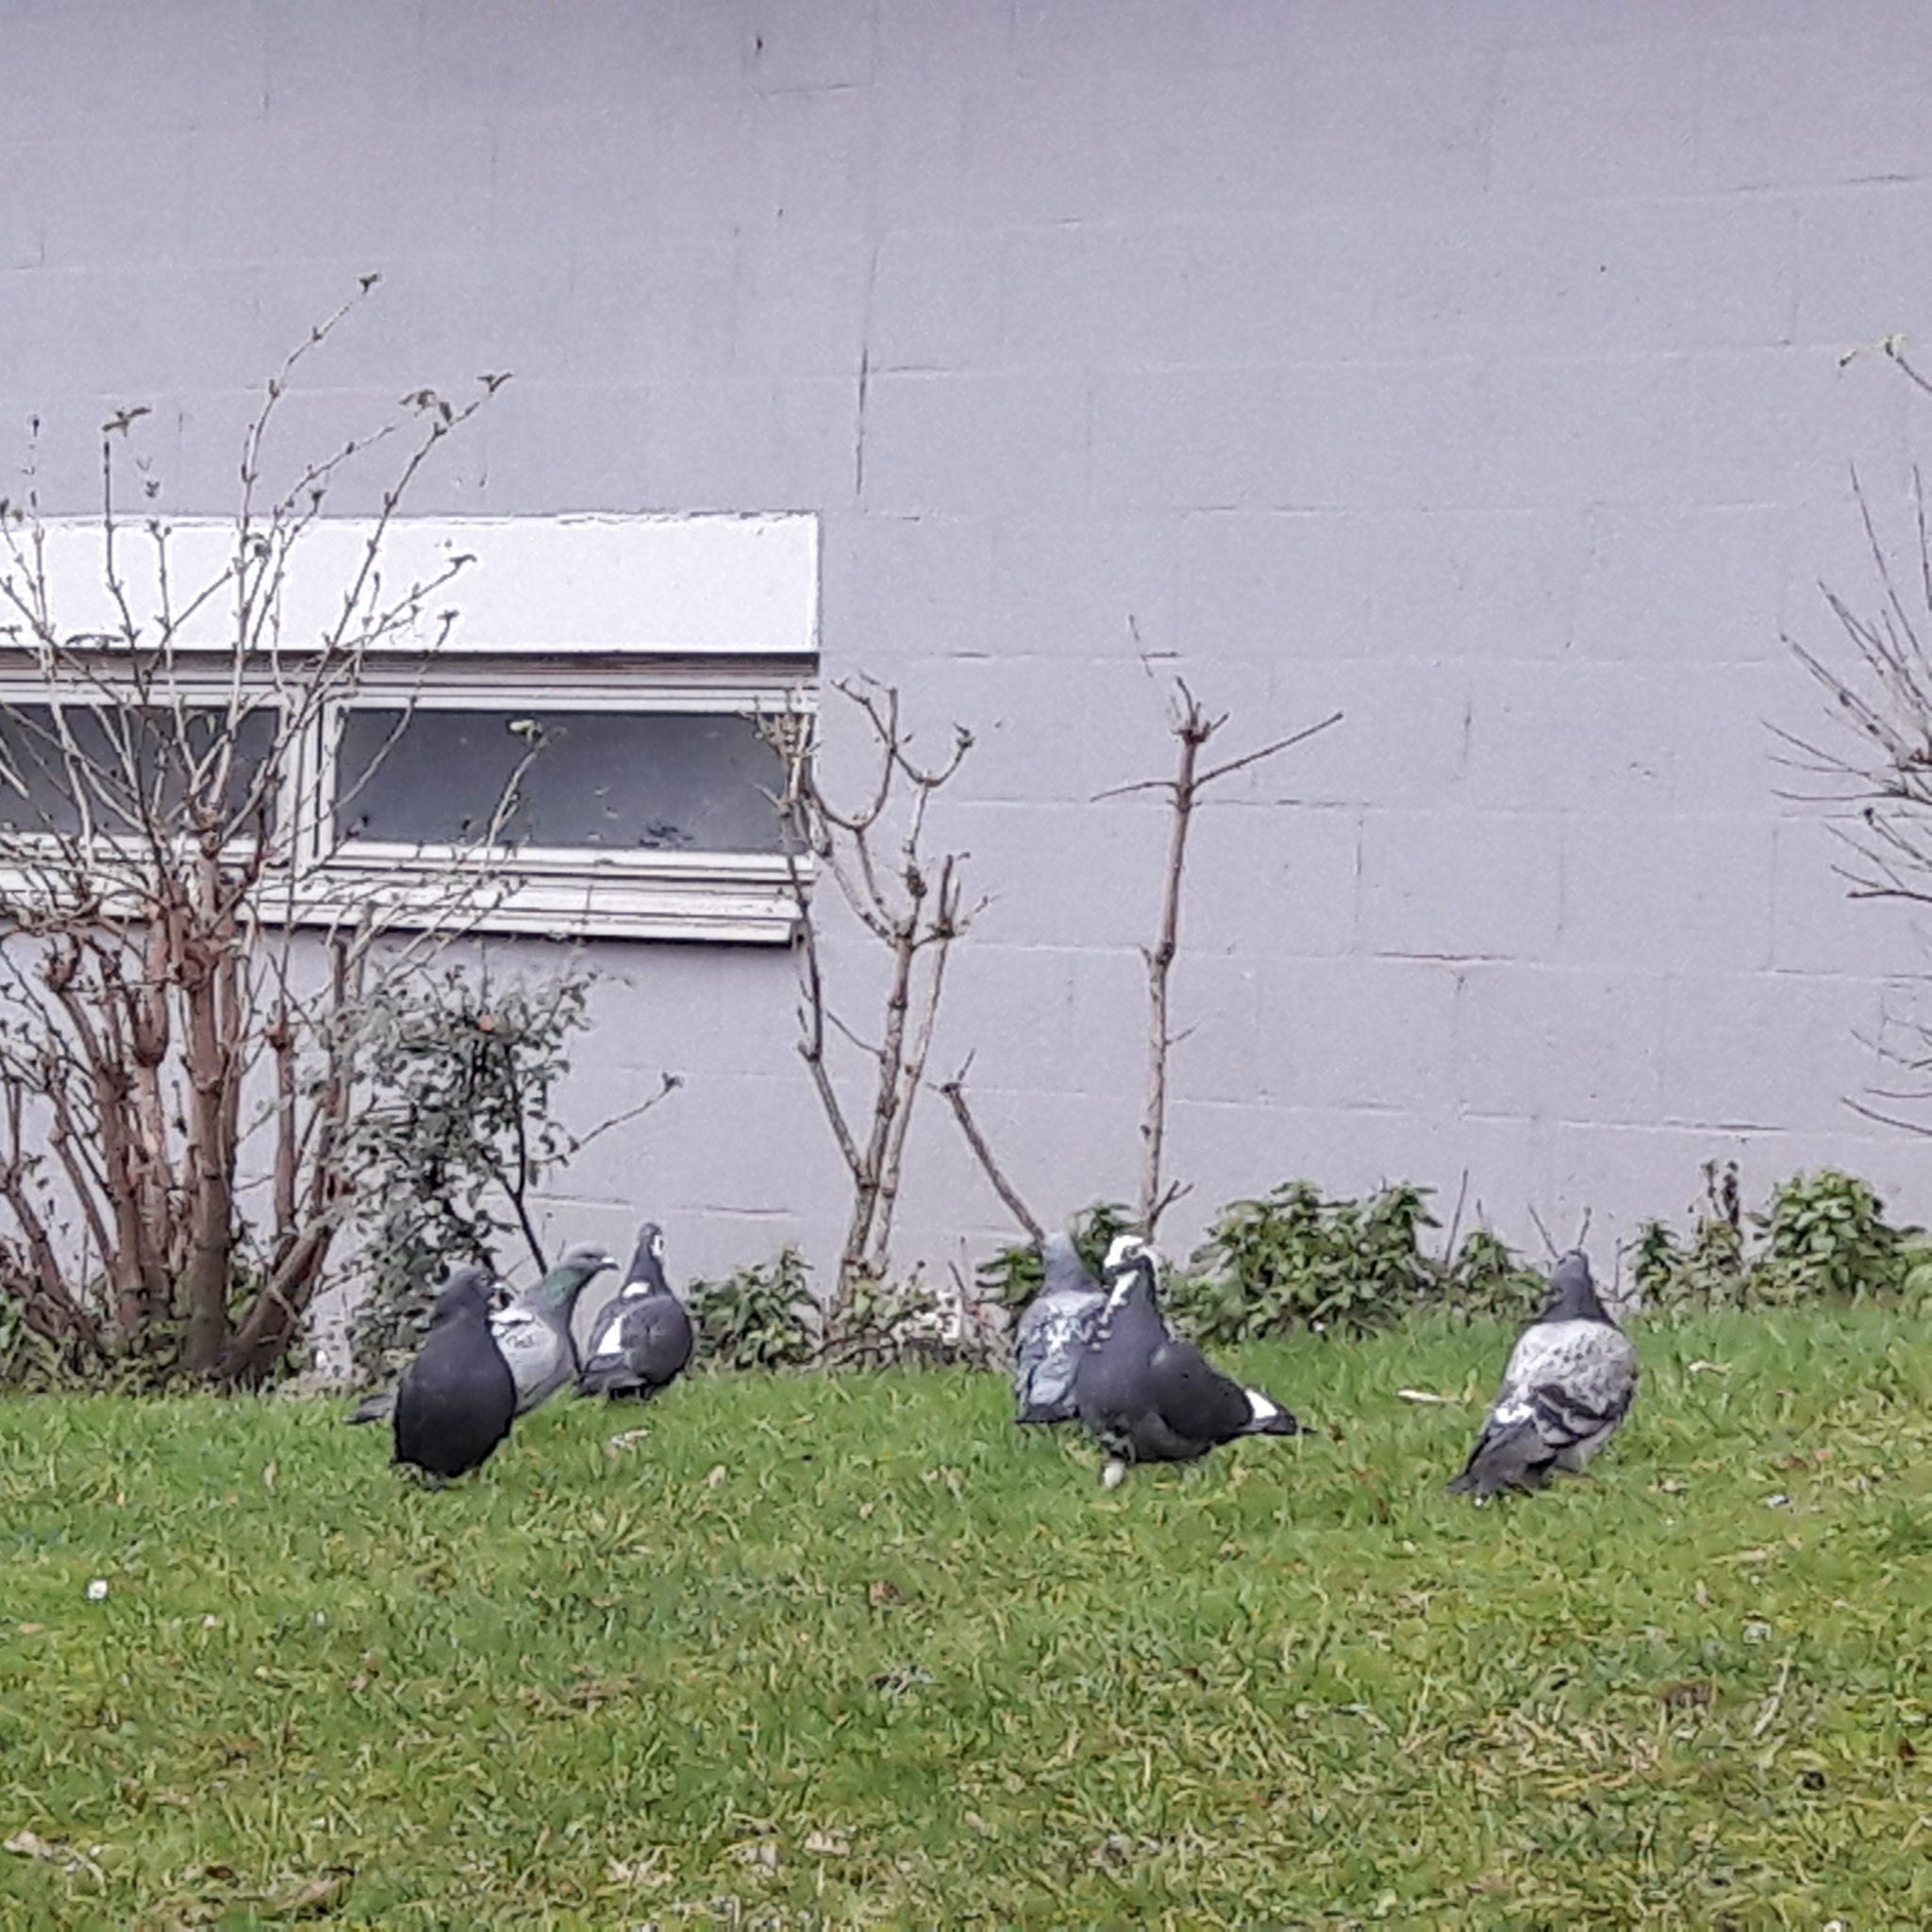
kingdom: Animalia
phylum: Chordata
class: Aves
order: Columbiformes
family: Columbidae
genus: Columba
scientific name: Columba livia
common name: Rock pigeon
